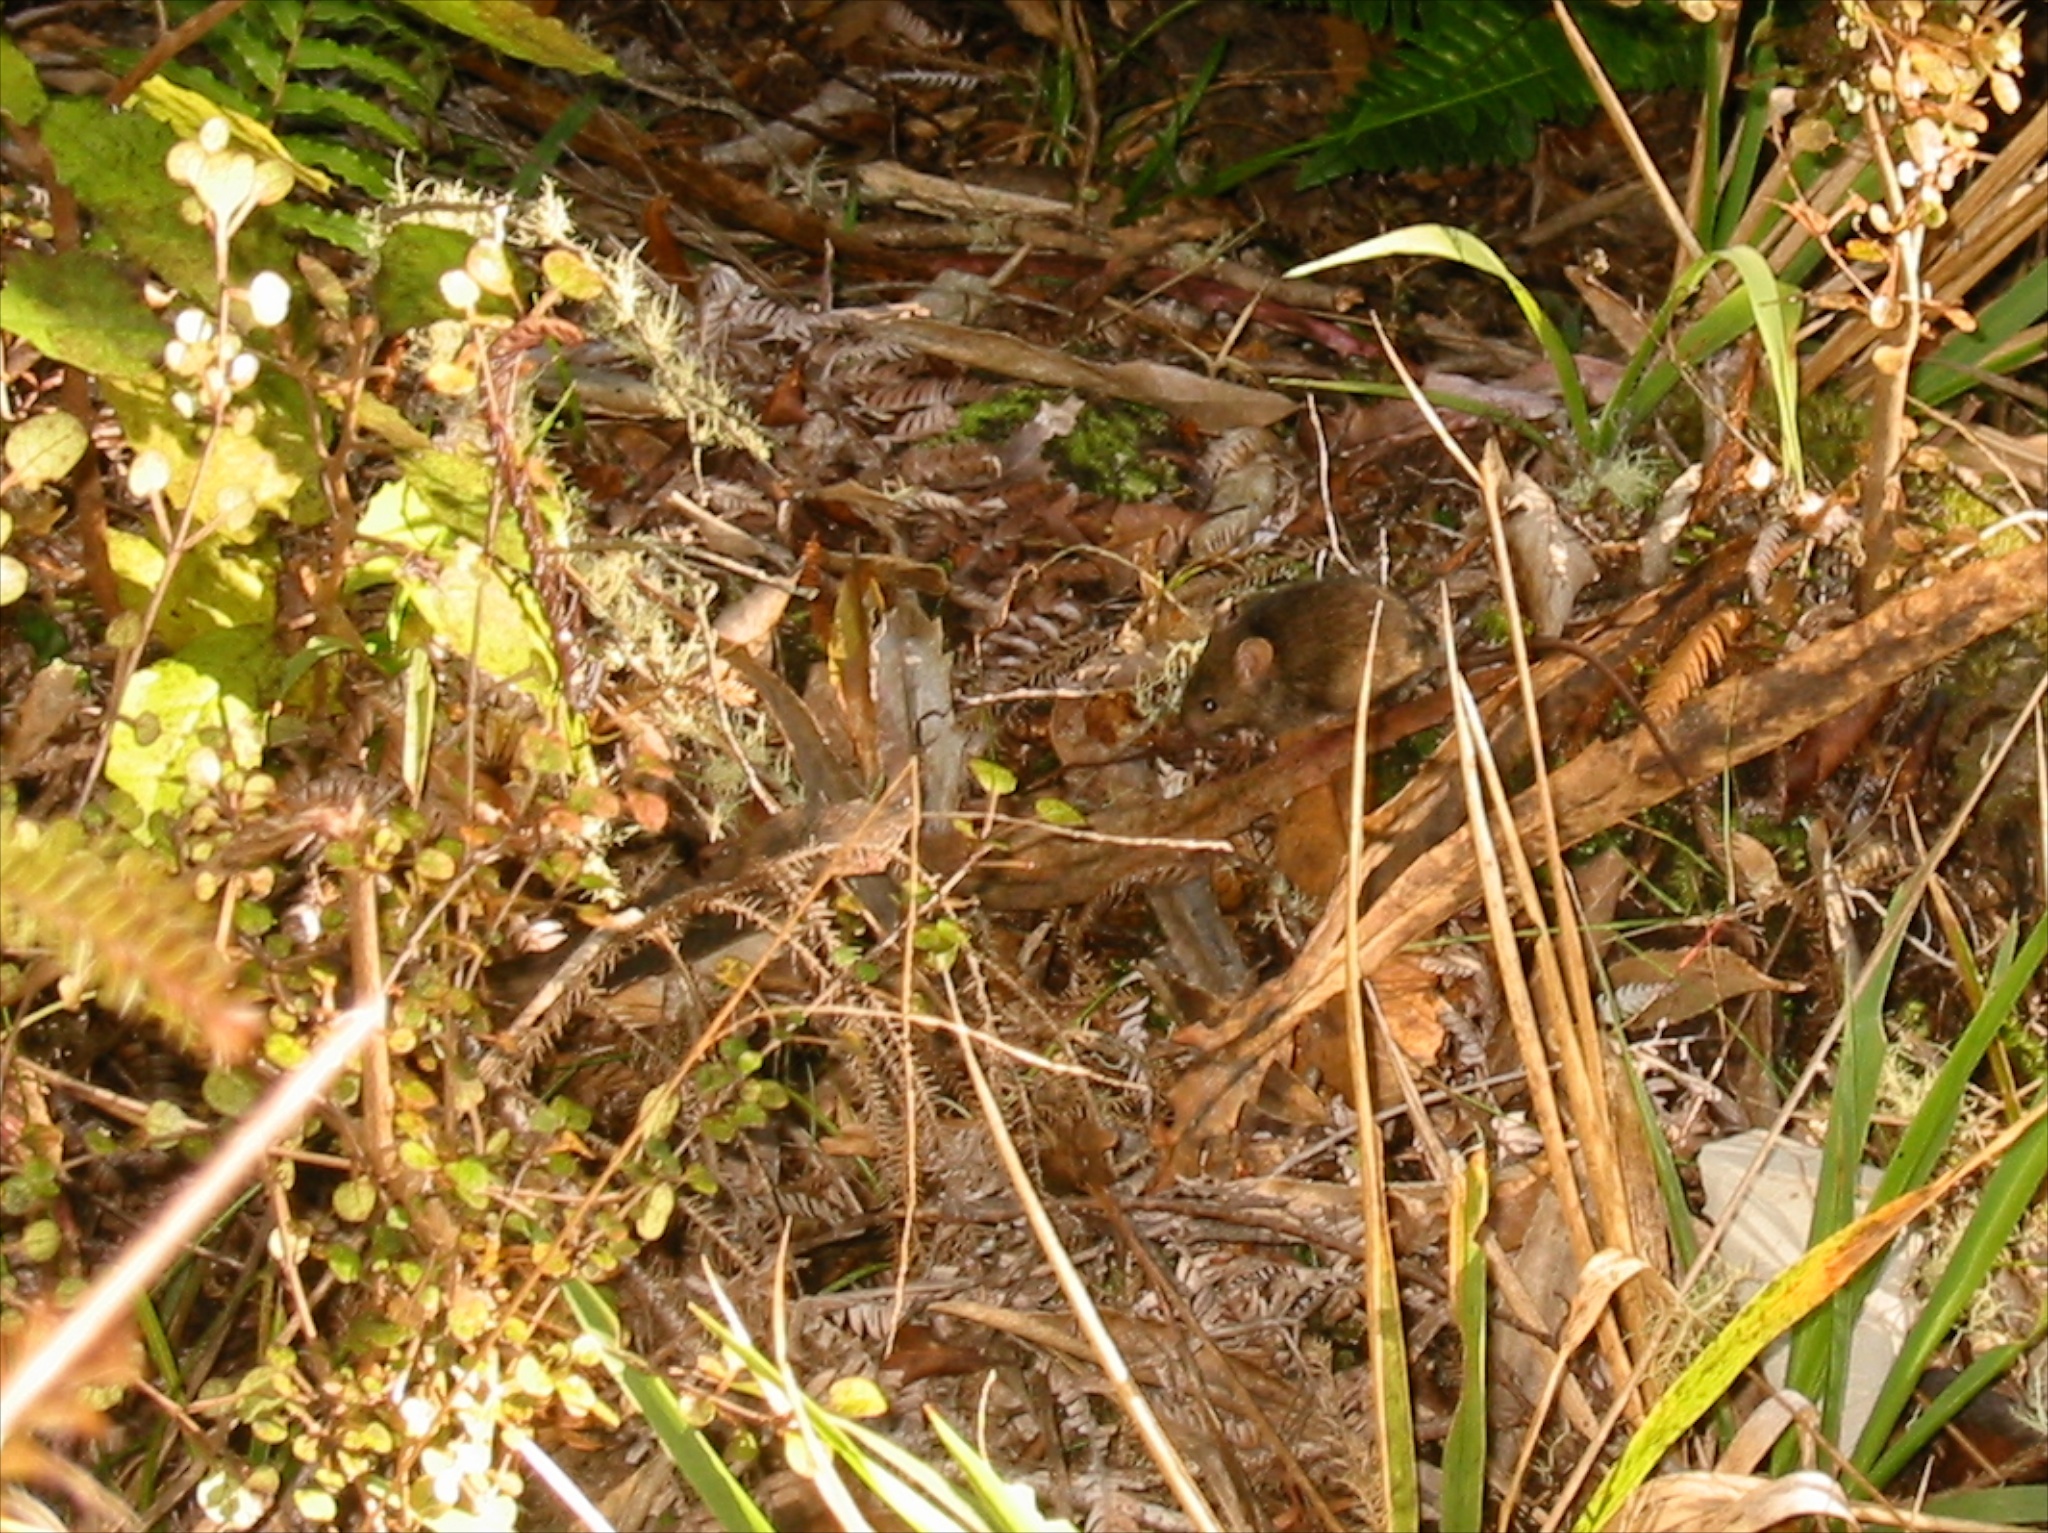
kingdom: Animalia
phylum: Chordata
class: Mammalia
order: Rodentia
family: Muridae
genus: Mus
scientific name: Mus musculus
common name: House mouse
